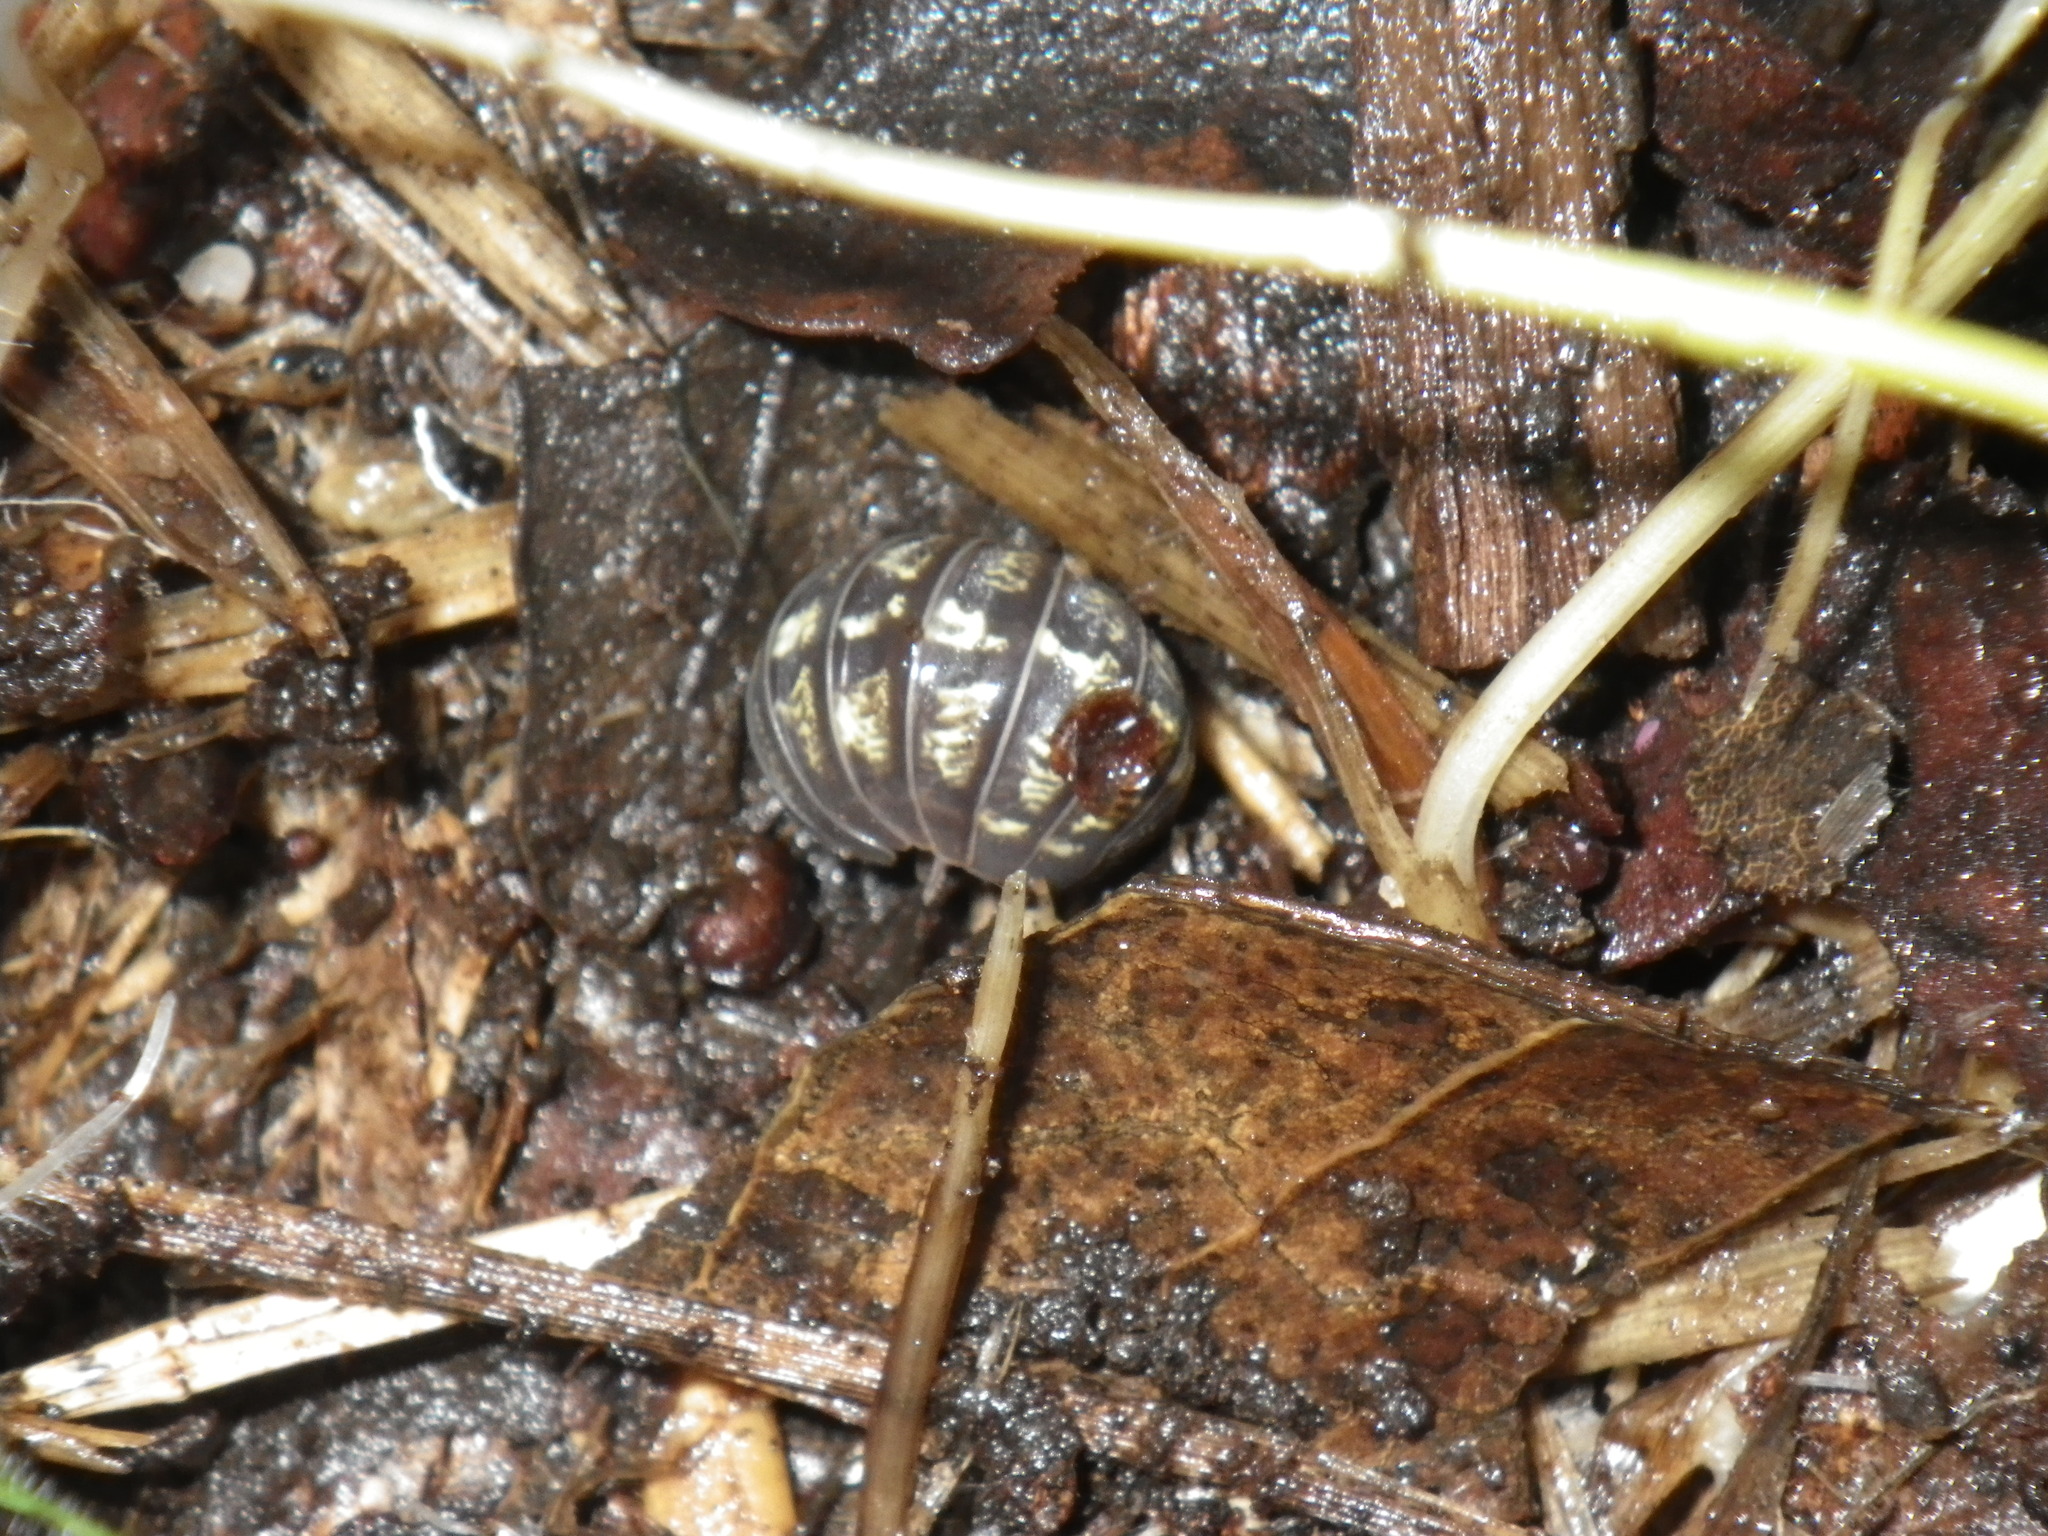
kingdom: Animalia
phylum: Arthropoda
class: Malacostraca
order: Isopoda
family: Armadillidiidae
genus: Armadillidium
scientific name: Armadillidium vulgare
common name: Common pill woodlouse
